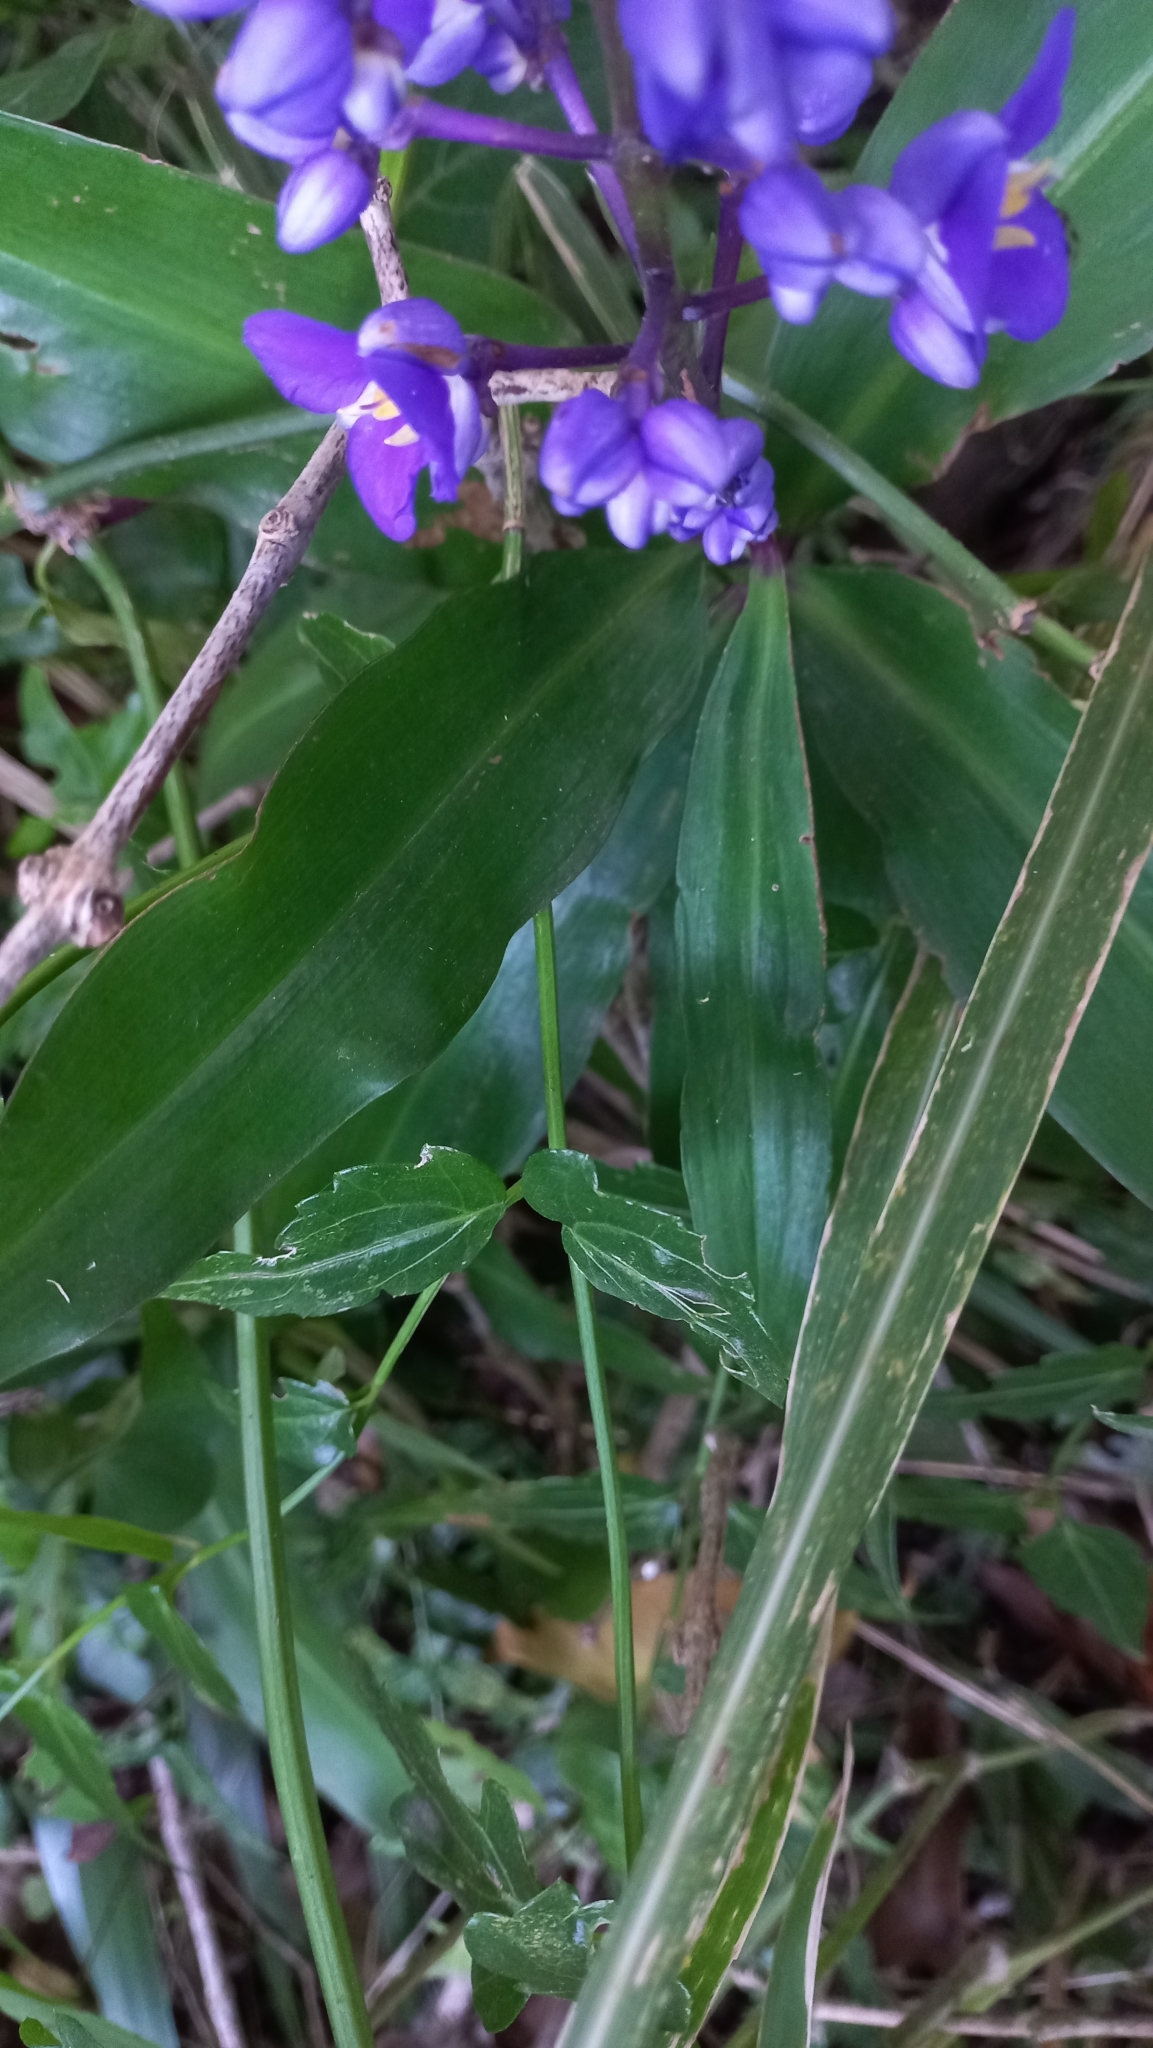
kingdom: Plantae
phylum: Tracheophyta
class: Liliopsida
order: Commelinales
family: Commelinaceae
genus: Dichorisandra
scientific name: Dichorisandra thyrsiflora
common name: Blue-ginger
